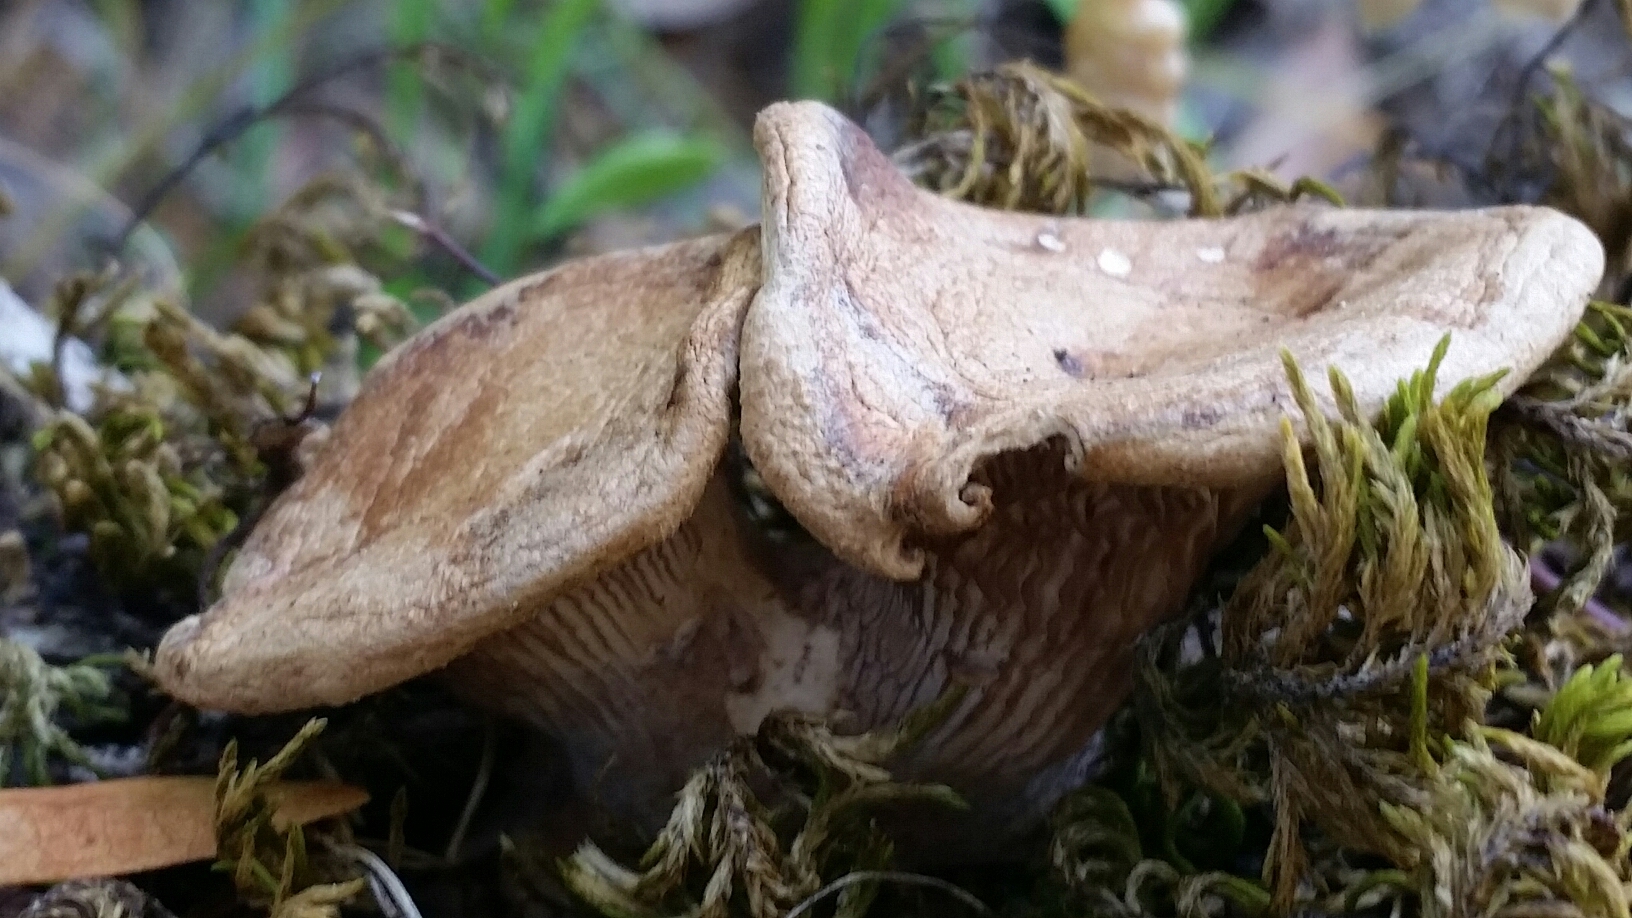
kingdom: Fungi
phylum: Basidiomycota
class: Agaricomycetes
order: Polyporales
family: Panaceae
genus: Panus
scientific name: Panus conchatus
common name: Lilac oysterling
